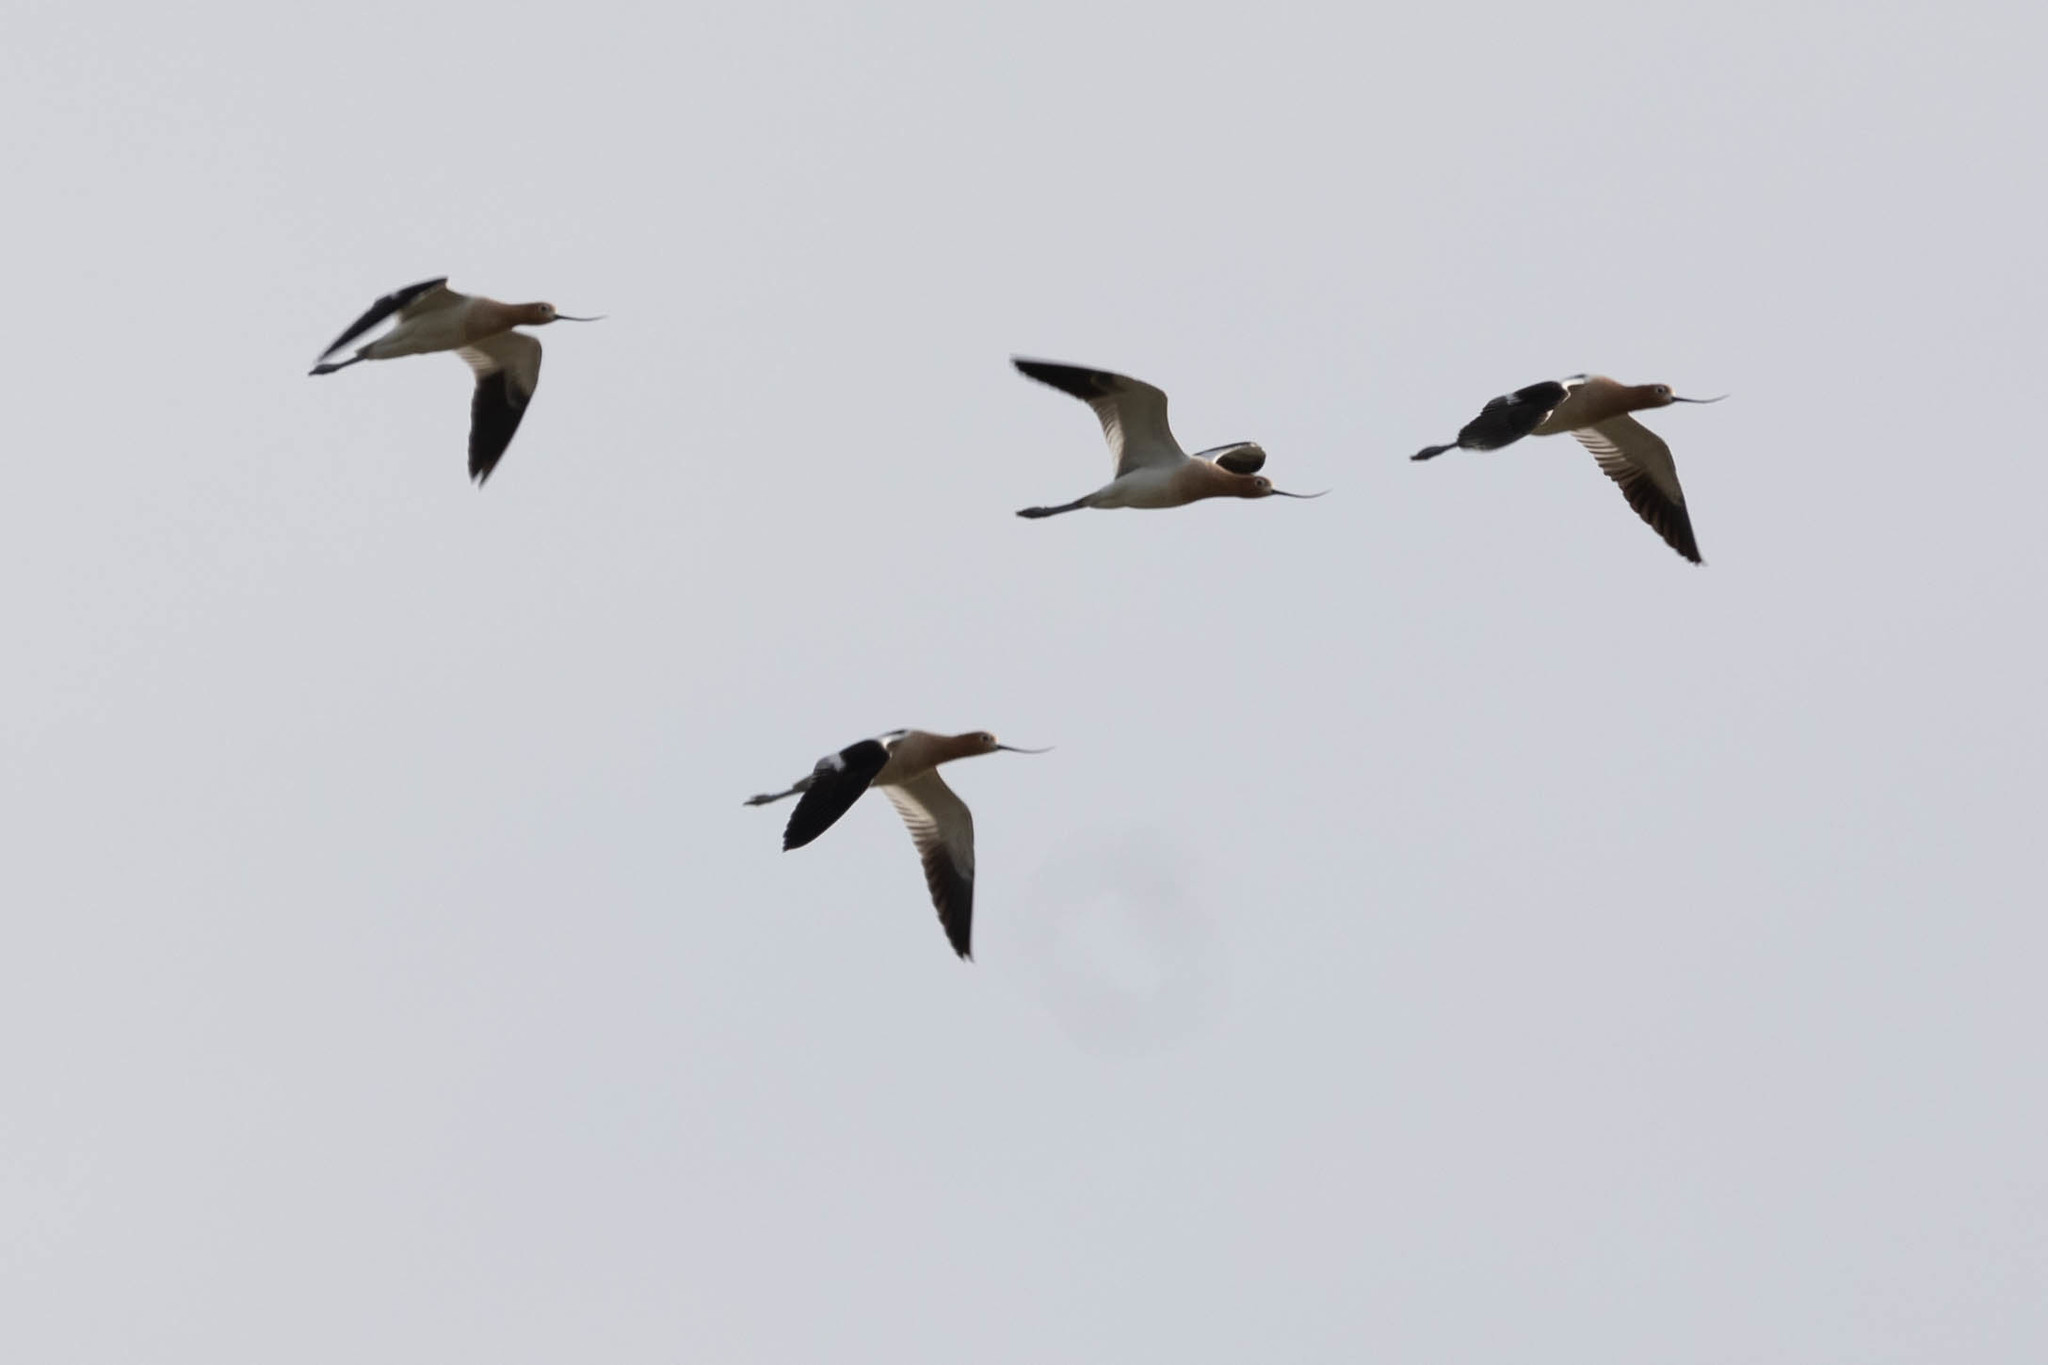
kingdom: Animalia
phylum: Chordata
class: Aves
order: Charadriiformes
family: Recurvirostridae
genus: Recurvirostra
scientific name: Recurvirostra americana
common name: American avocet
